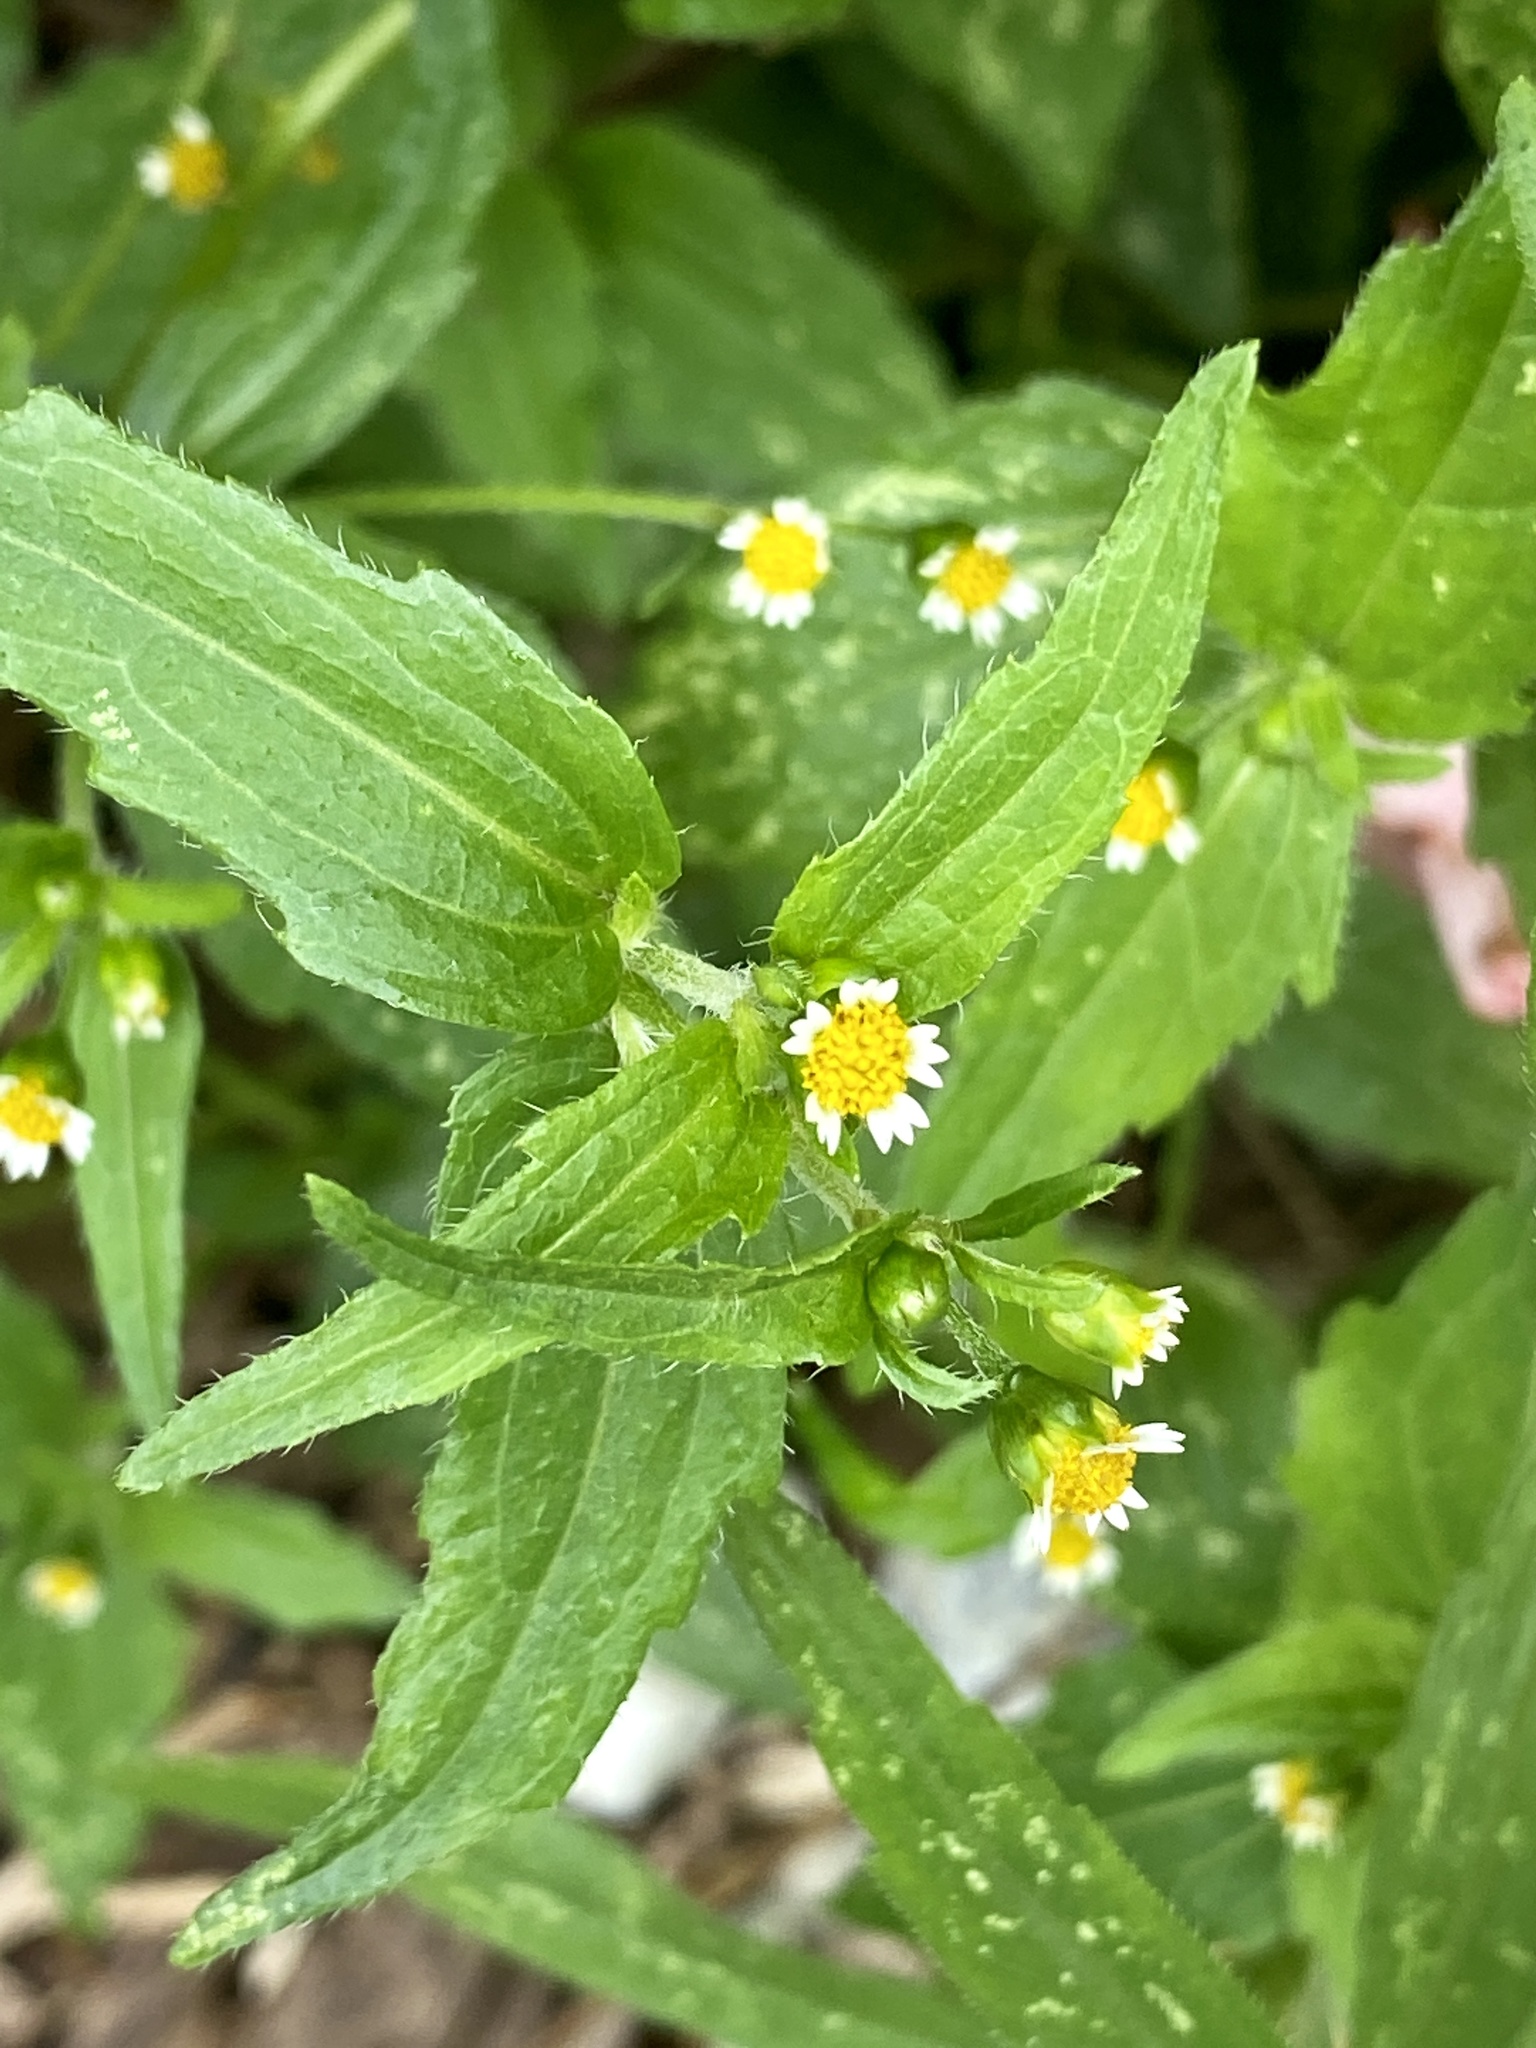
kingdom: Plantae
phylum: Tracheophyta
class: Magnoliopsida
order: Asterales
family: Asteraceae
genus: Galinsoga
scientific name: Galinsoga quadriradiata
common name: Shaggy soldier
